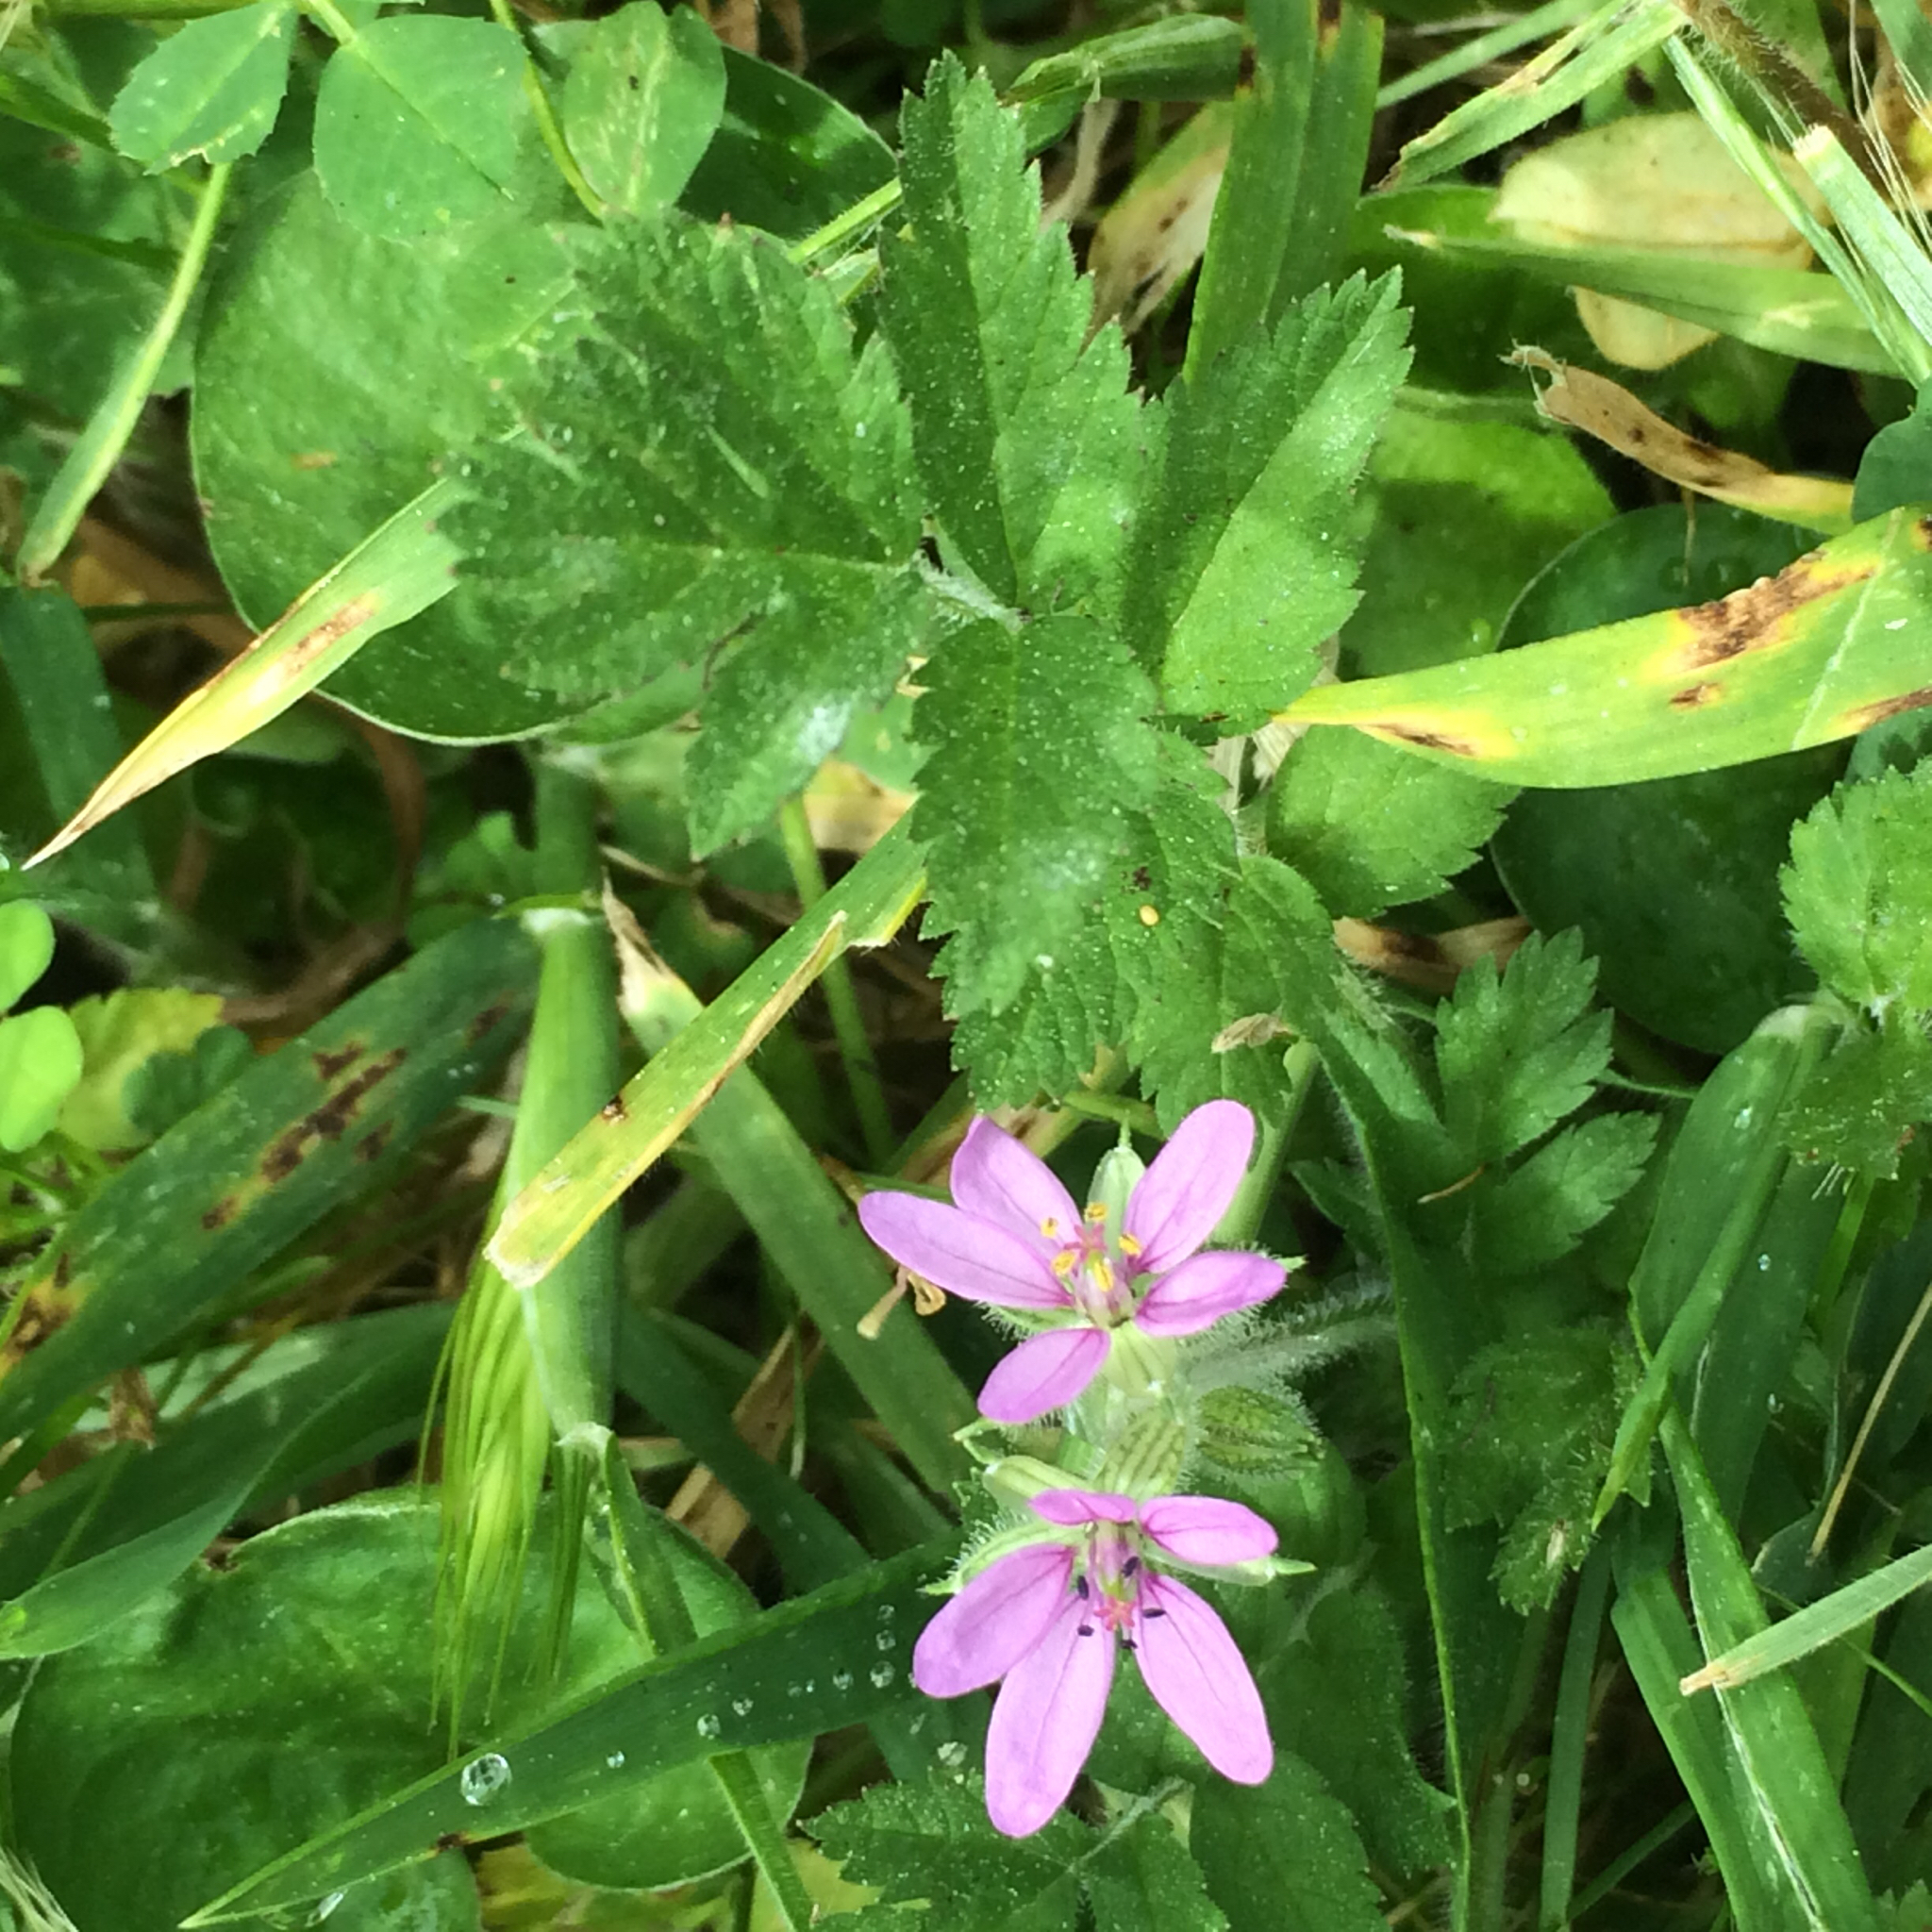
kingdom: Plantae
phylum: Tracheophyta
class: Magnoliopsida
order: Geraniales
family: Geraniaceae
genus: Erodium
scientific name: Erodium moschatum
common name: Musk stork's-bill
